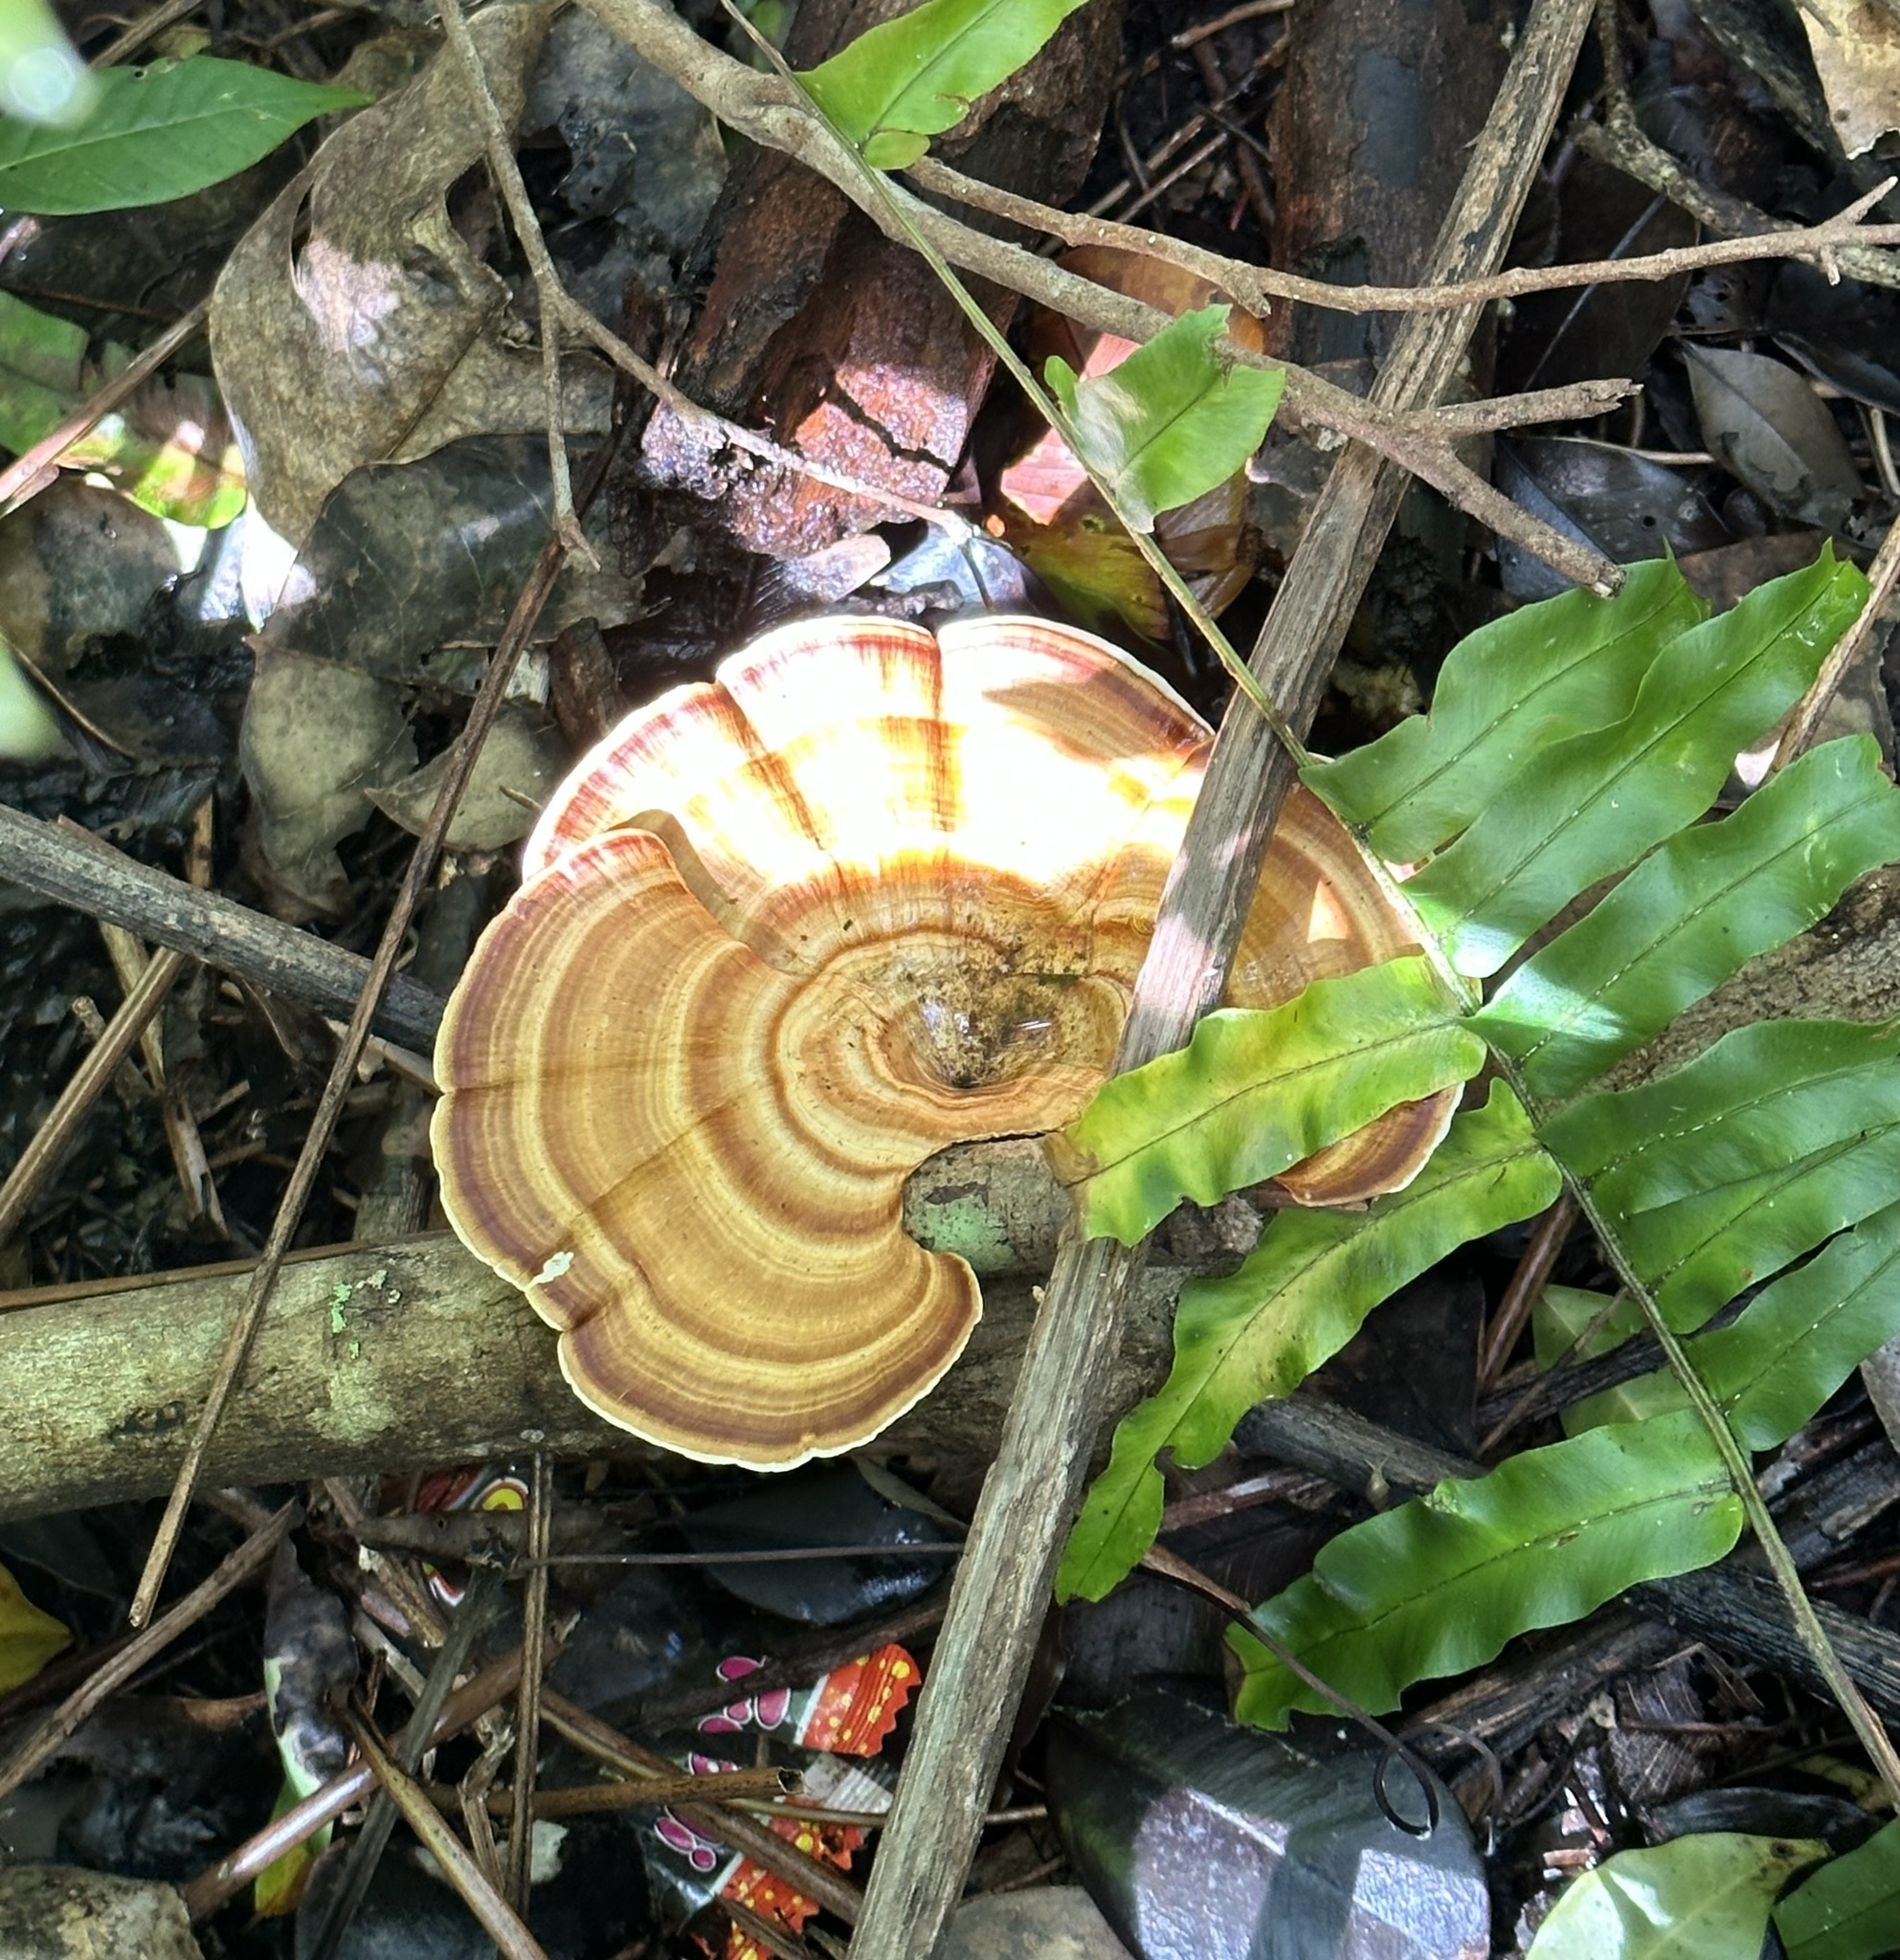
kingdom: Fungi
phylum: Basidiomycota
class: Agaricomycetes
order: Polyporales
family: Polyporaceae
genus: Microporus
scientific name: Microporus xanthopus
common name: Yellow-stemmed micropore
